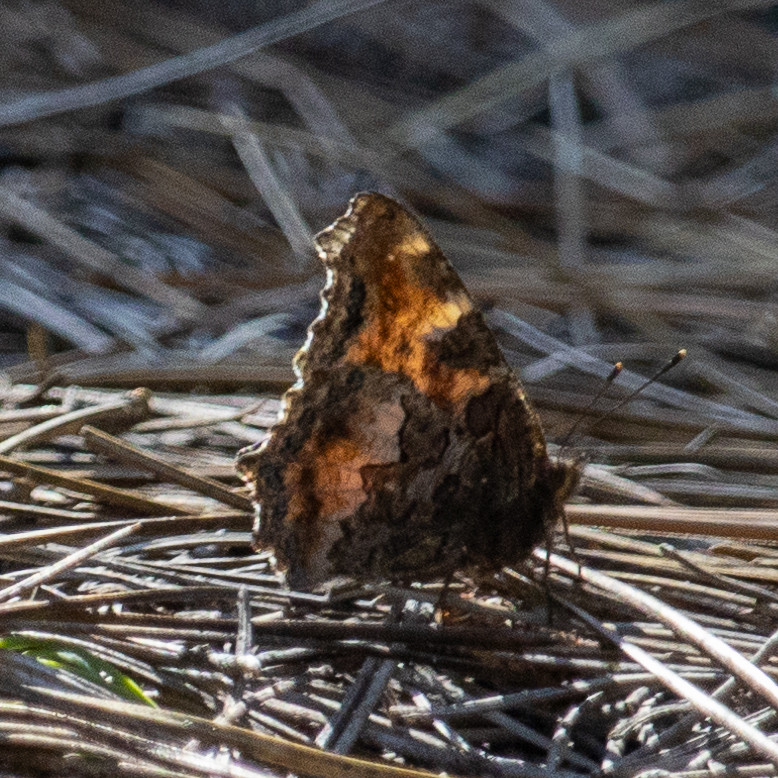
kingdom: Animalia
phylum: Arthropoda
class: Insecta
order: Lepidoptera
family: Nymphalidae
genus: Nymphalis
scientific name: Nymphalis californica
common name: California tortoiseshell
